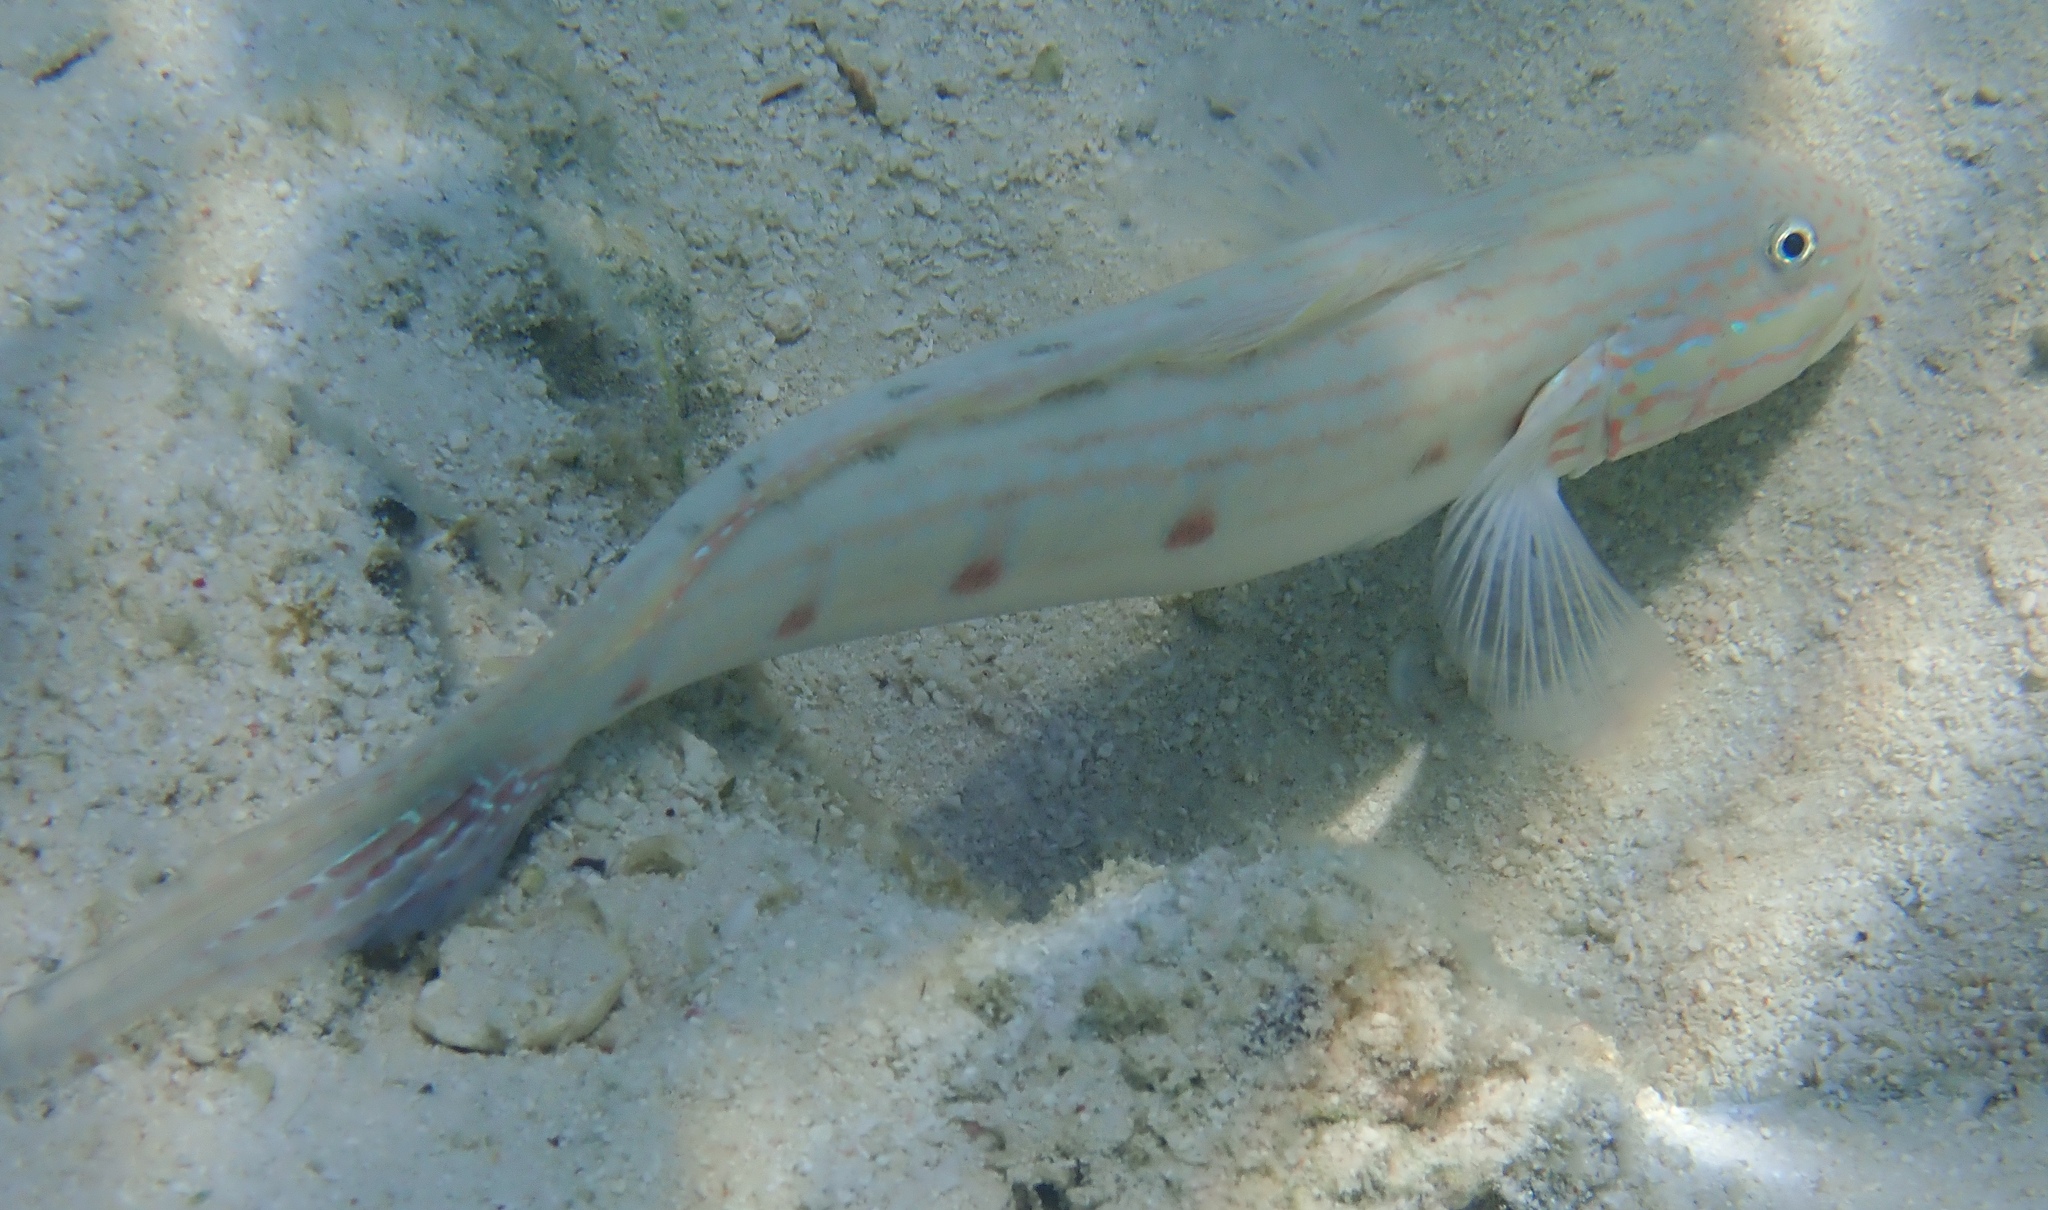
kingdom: Animalia
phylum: Chordata
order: Perciformes
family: Gobiidae
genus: Valenciennea
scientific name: Valenciennea longipinnis
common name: Longfinned goby
